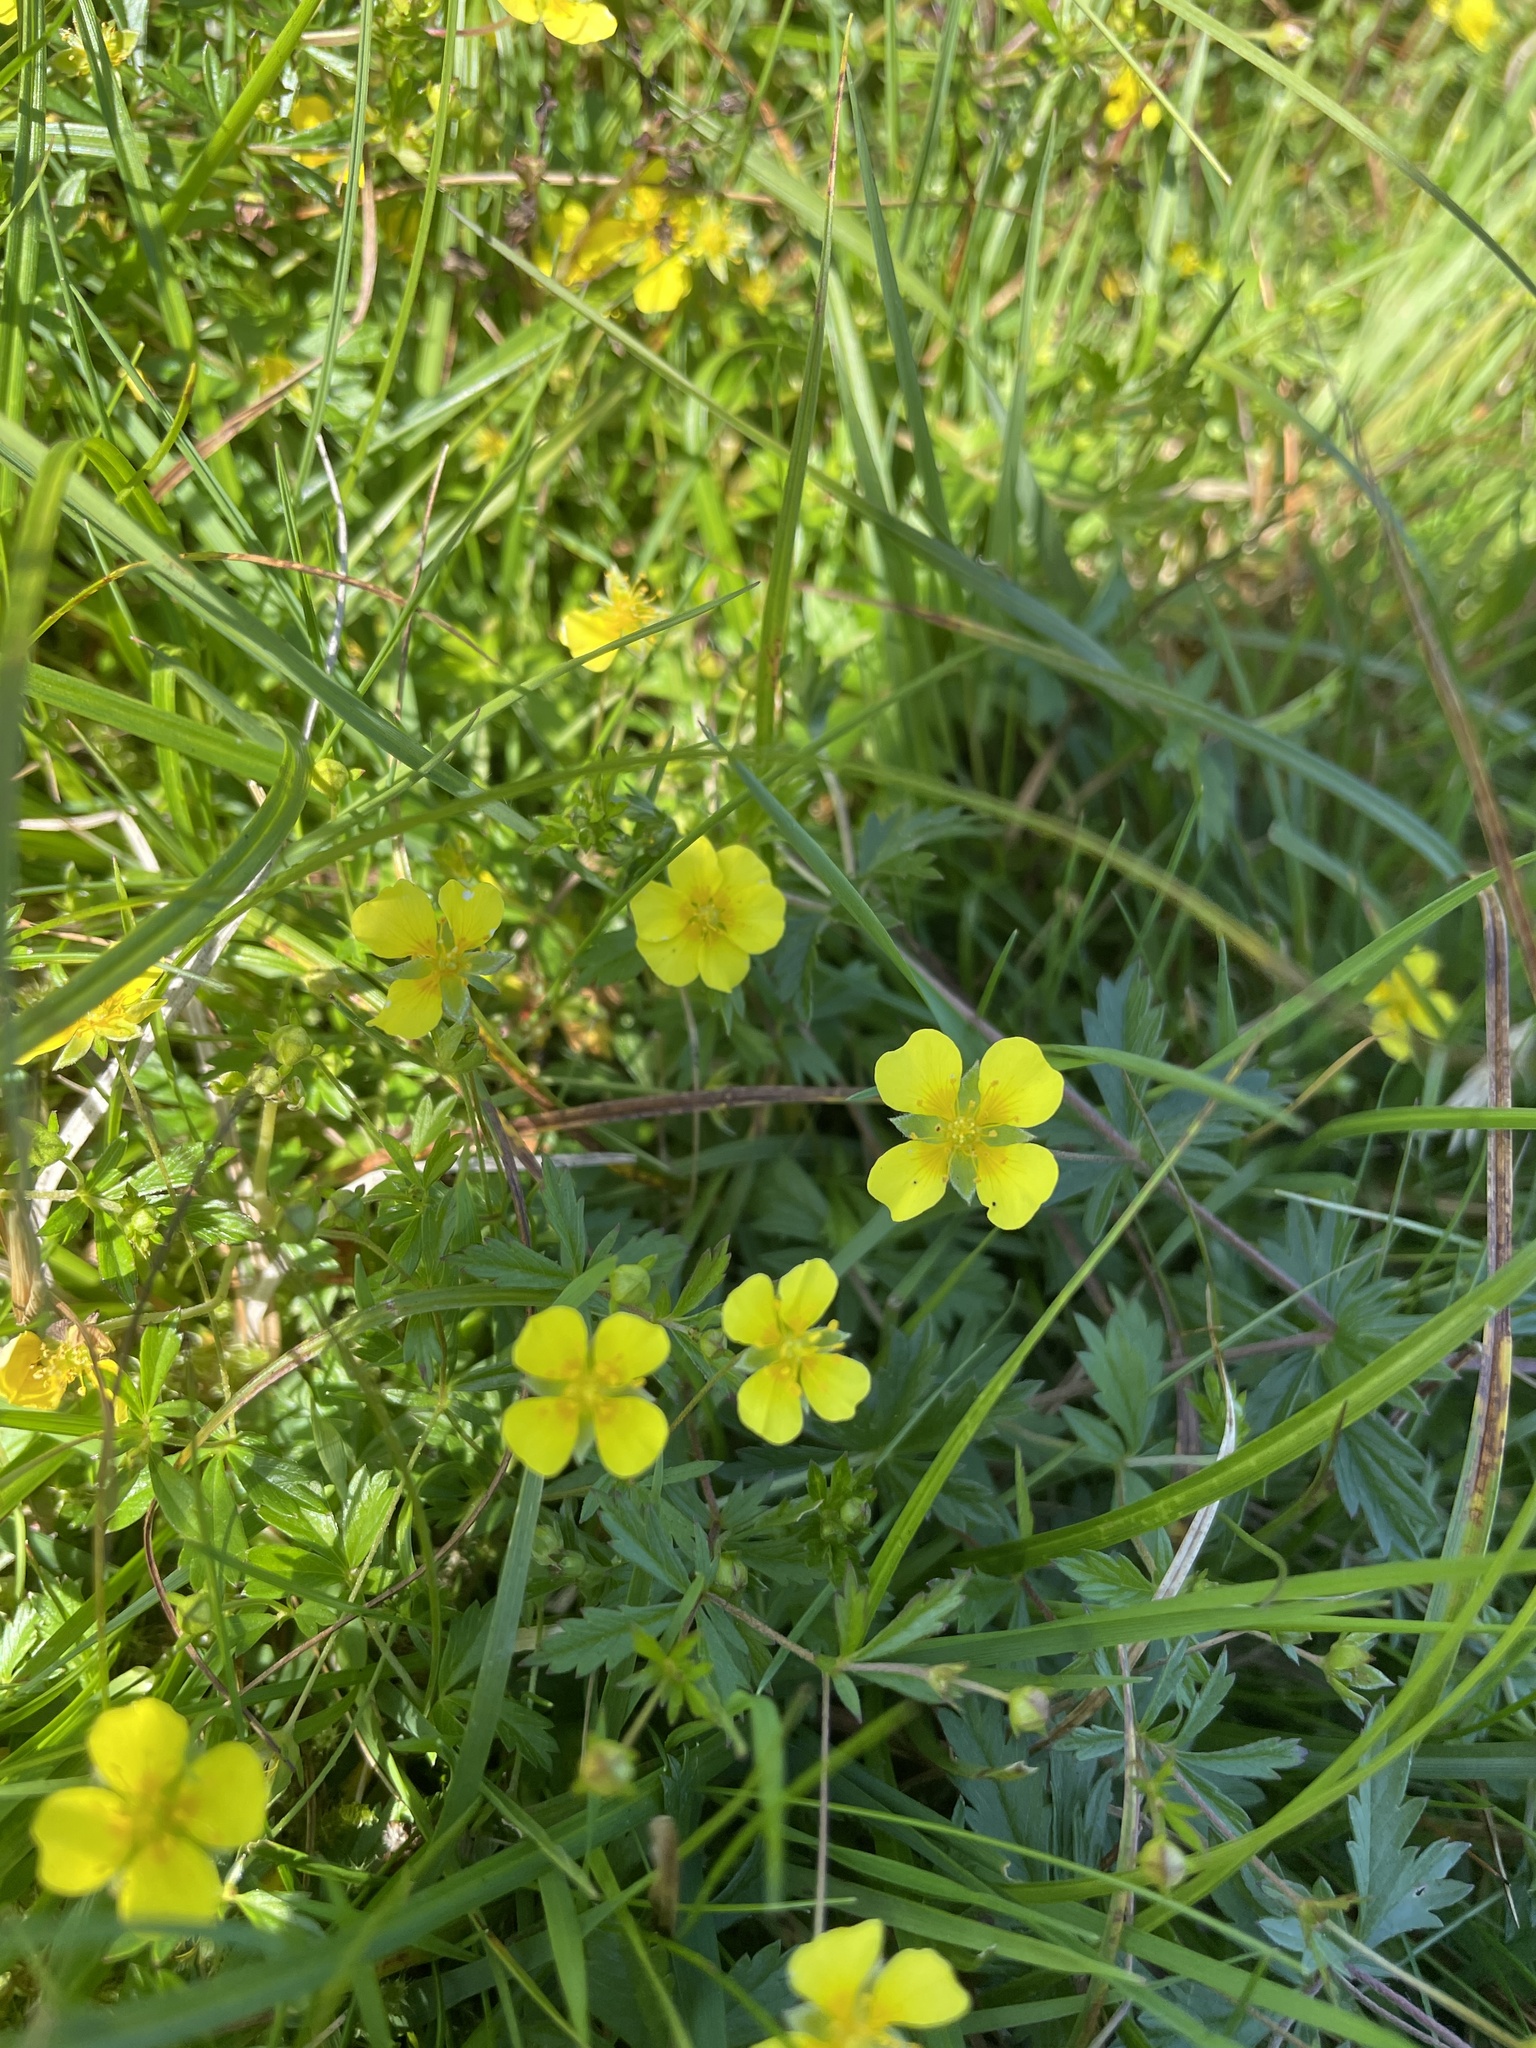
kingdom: Plantae
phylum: Tracheophyta
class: Magnoliopsida
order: Rosales
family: Rosaceae
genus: Potentilla
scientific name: Potentilla erecta
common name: Tormentil
